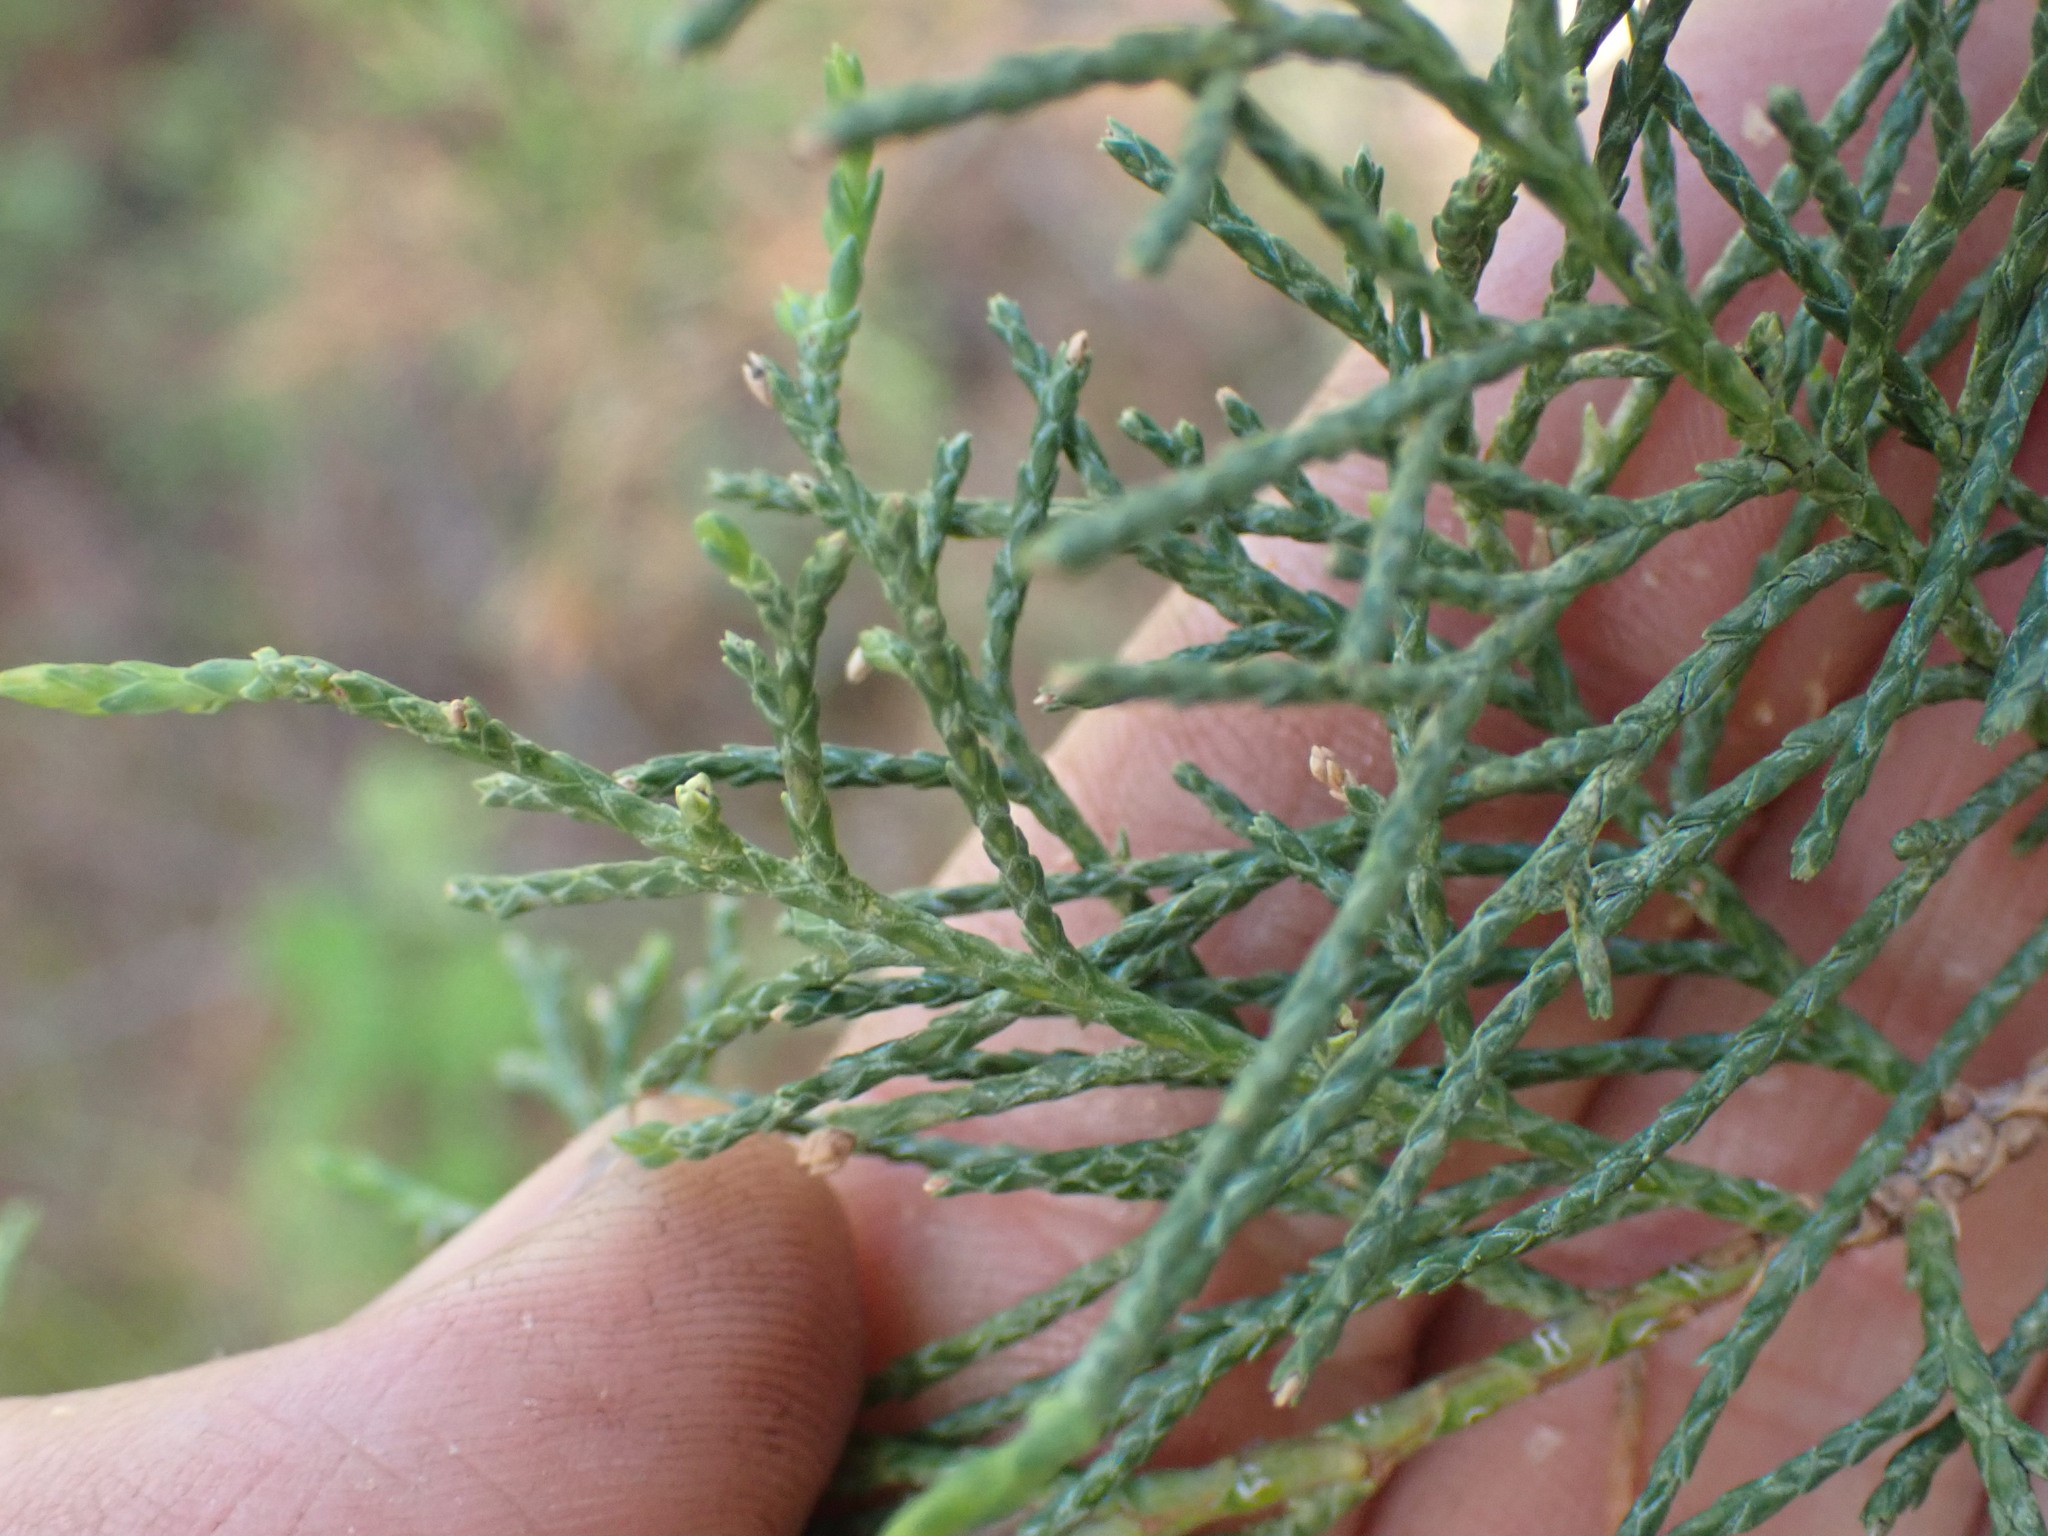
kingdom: Plantae
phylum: Tracheophyta
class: Pinopsida
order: Pinales
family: Cupressaceae
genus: Juniperus
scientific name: Juniperus scopulorum
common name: Rocky mountain juniper
